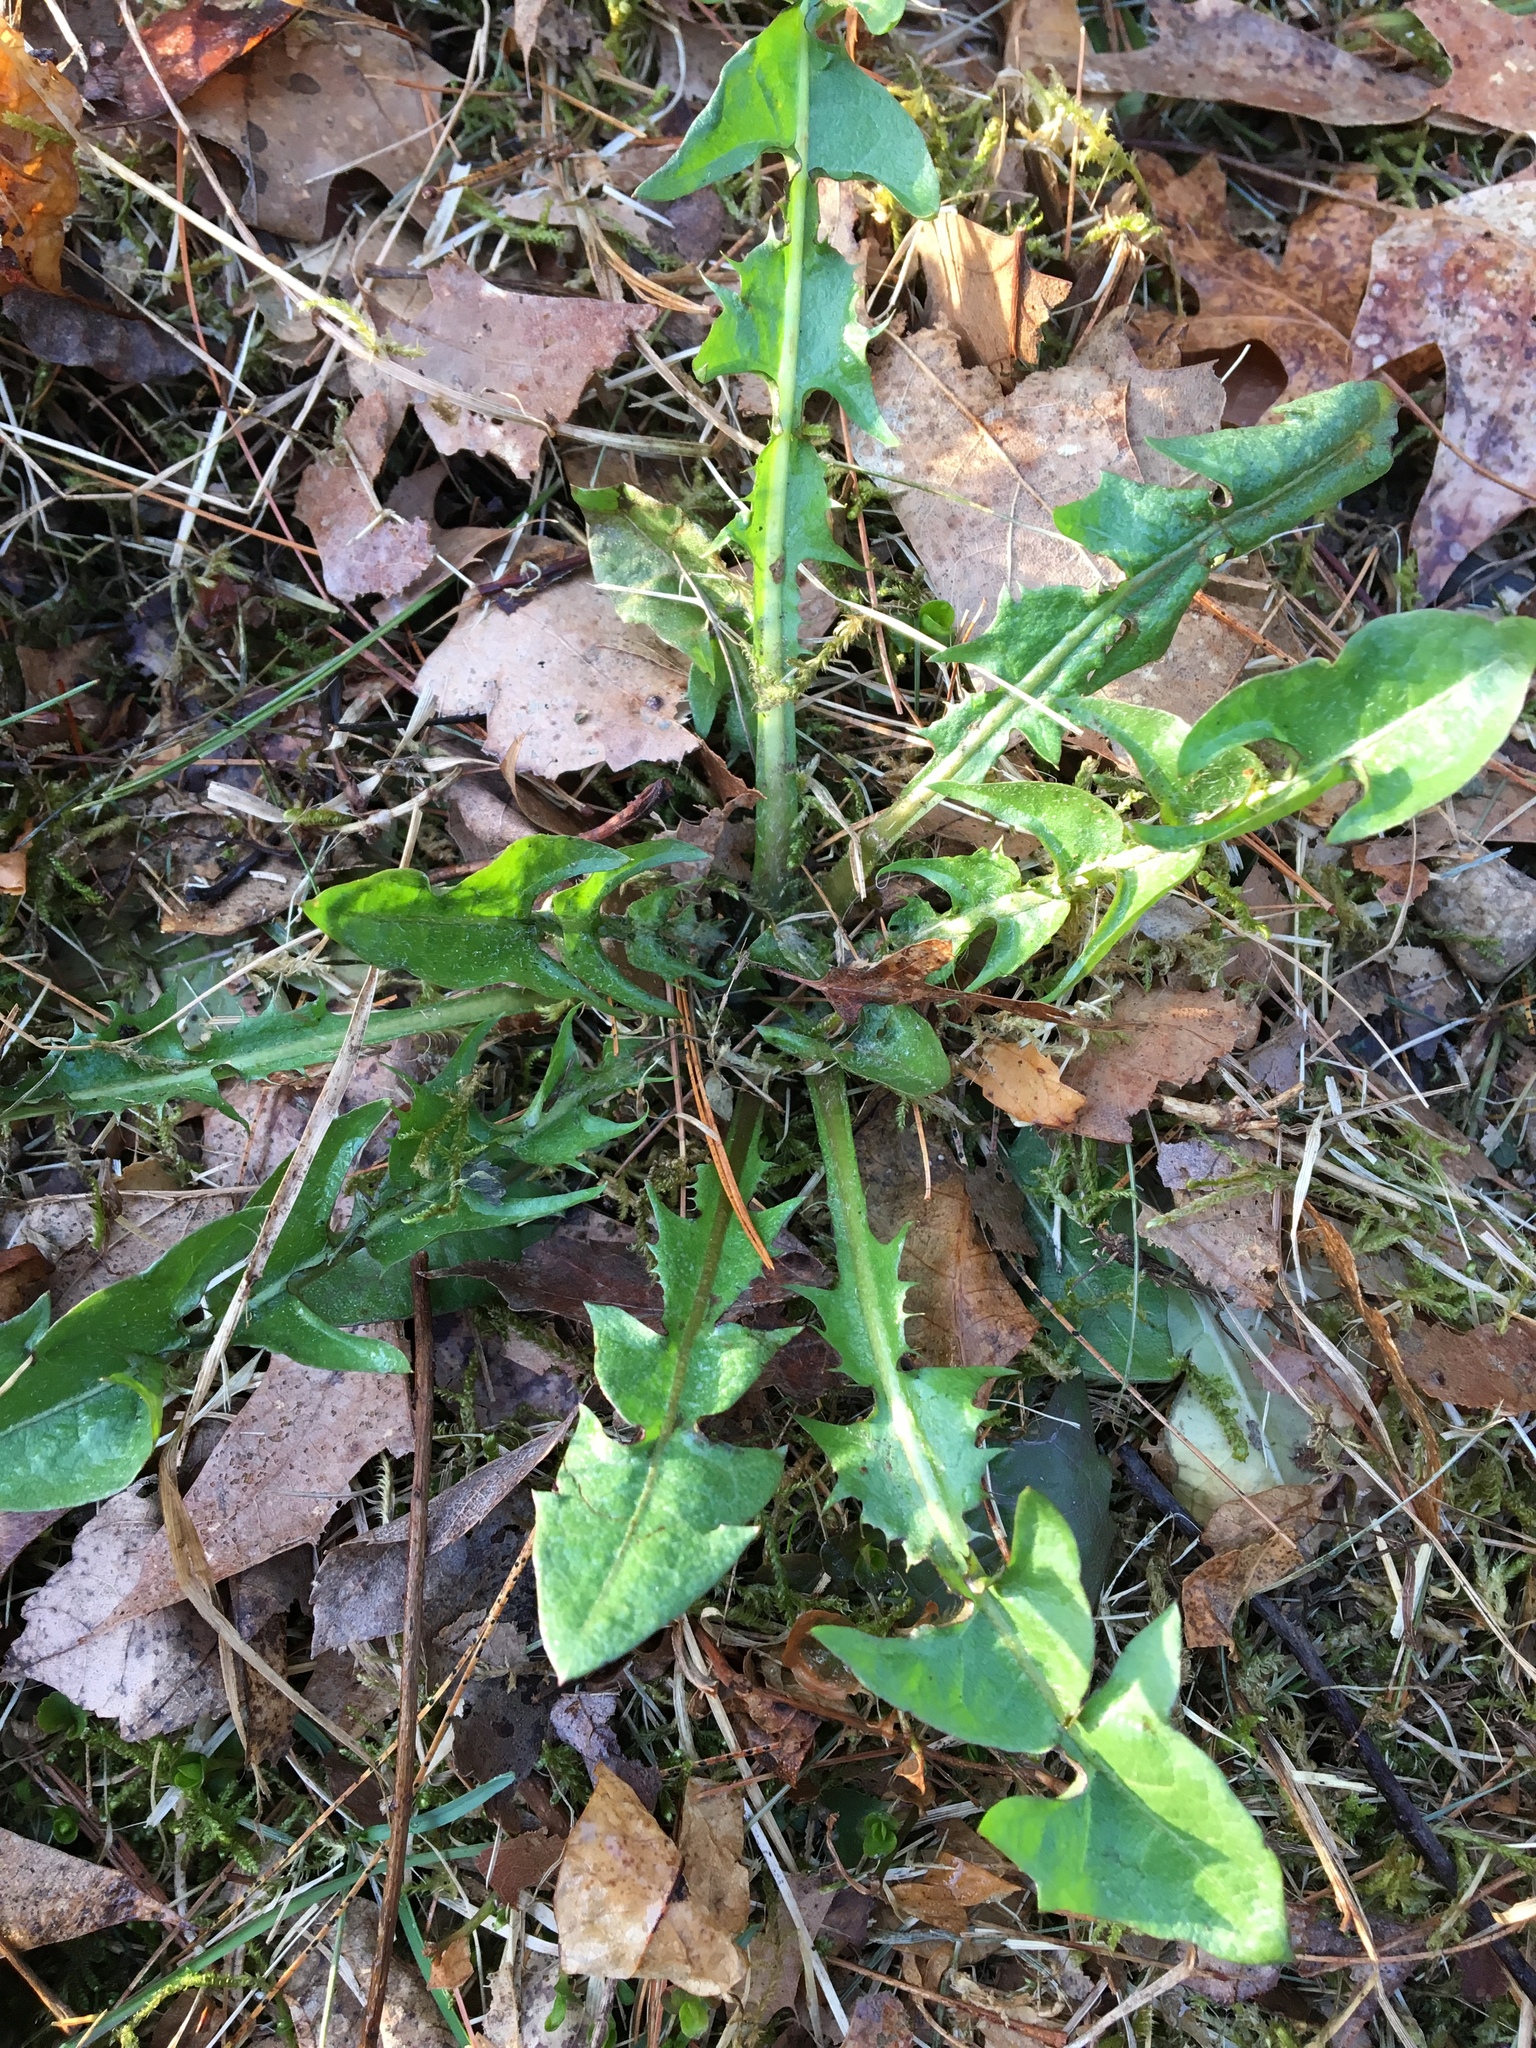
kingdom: Plantae
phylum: Tracheophyta
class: Magnoliopsida
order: Asterales
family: Asteraceae
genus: Taraxacum
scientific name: Taraxacum officinale
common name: Common dandelion
